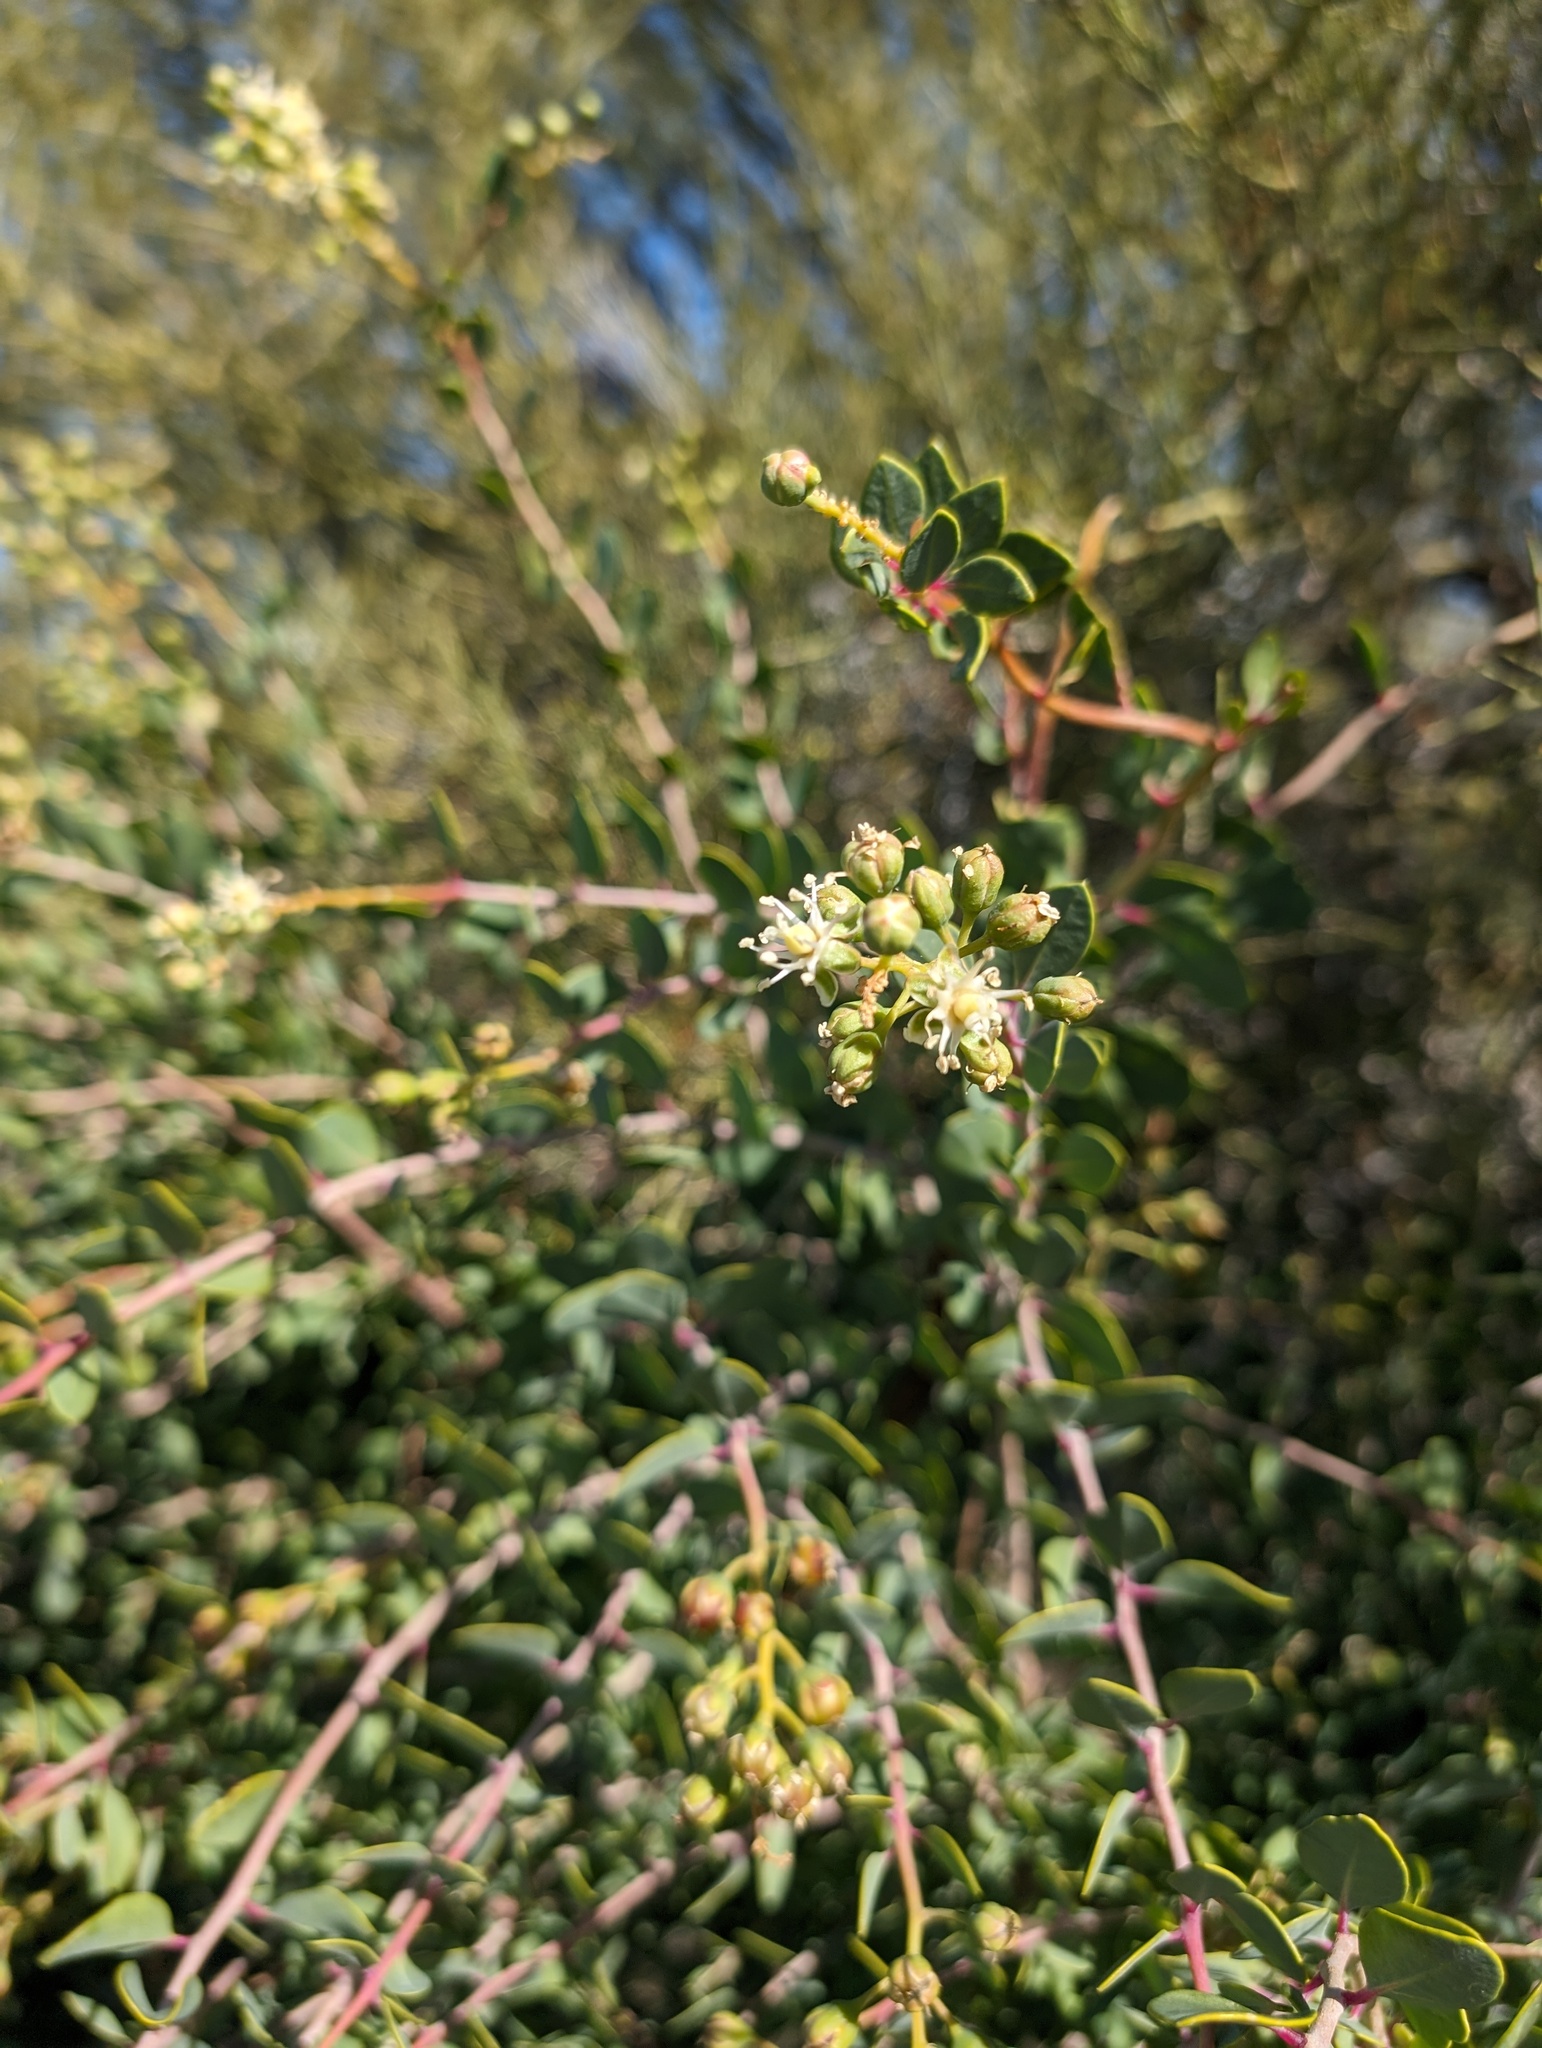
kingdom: Plantae
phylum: Tracheophyta
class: Magnoliopsida
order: Caryophyllales
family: Stegnospermataceae
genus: Stegnosperma
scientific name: Stegnosperma halimifolium
